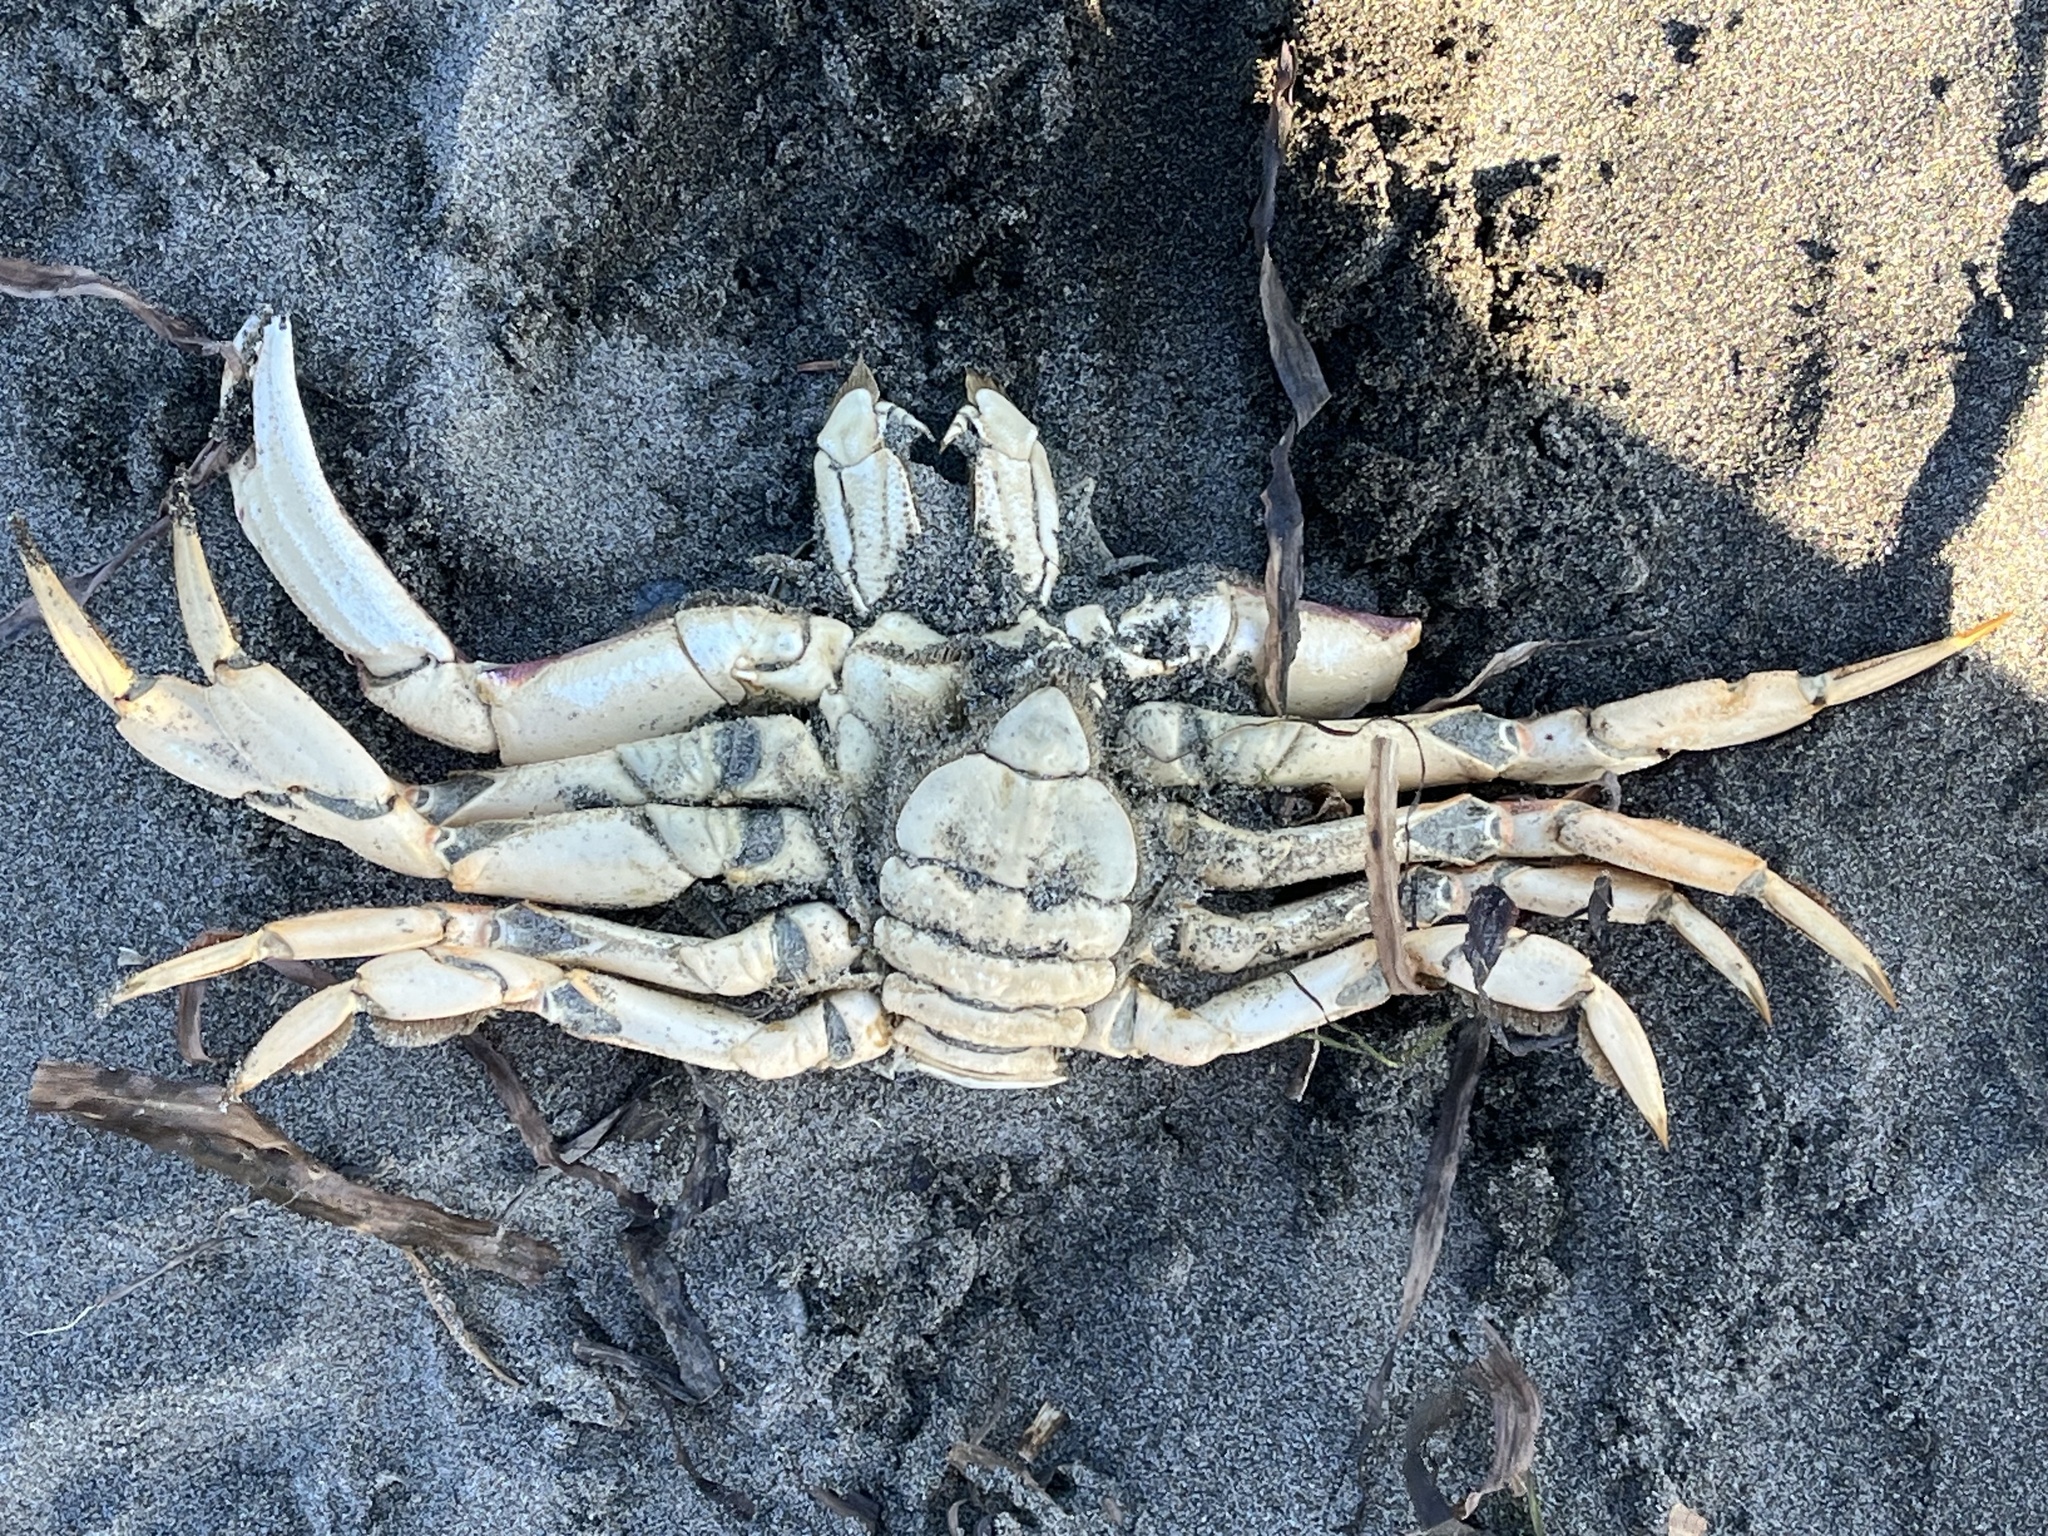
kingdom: Animalia
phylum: Arthropoda
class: Malacostraca
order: Decapoda
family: Cancridae
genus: Metacarcinus
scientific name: Metacarcinus magister
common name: Californian crab
